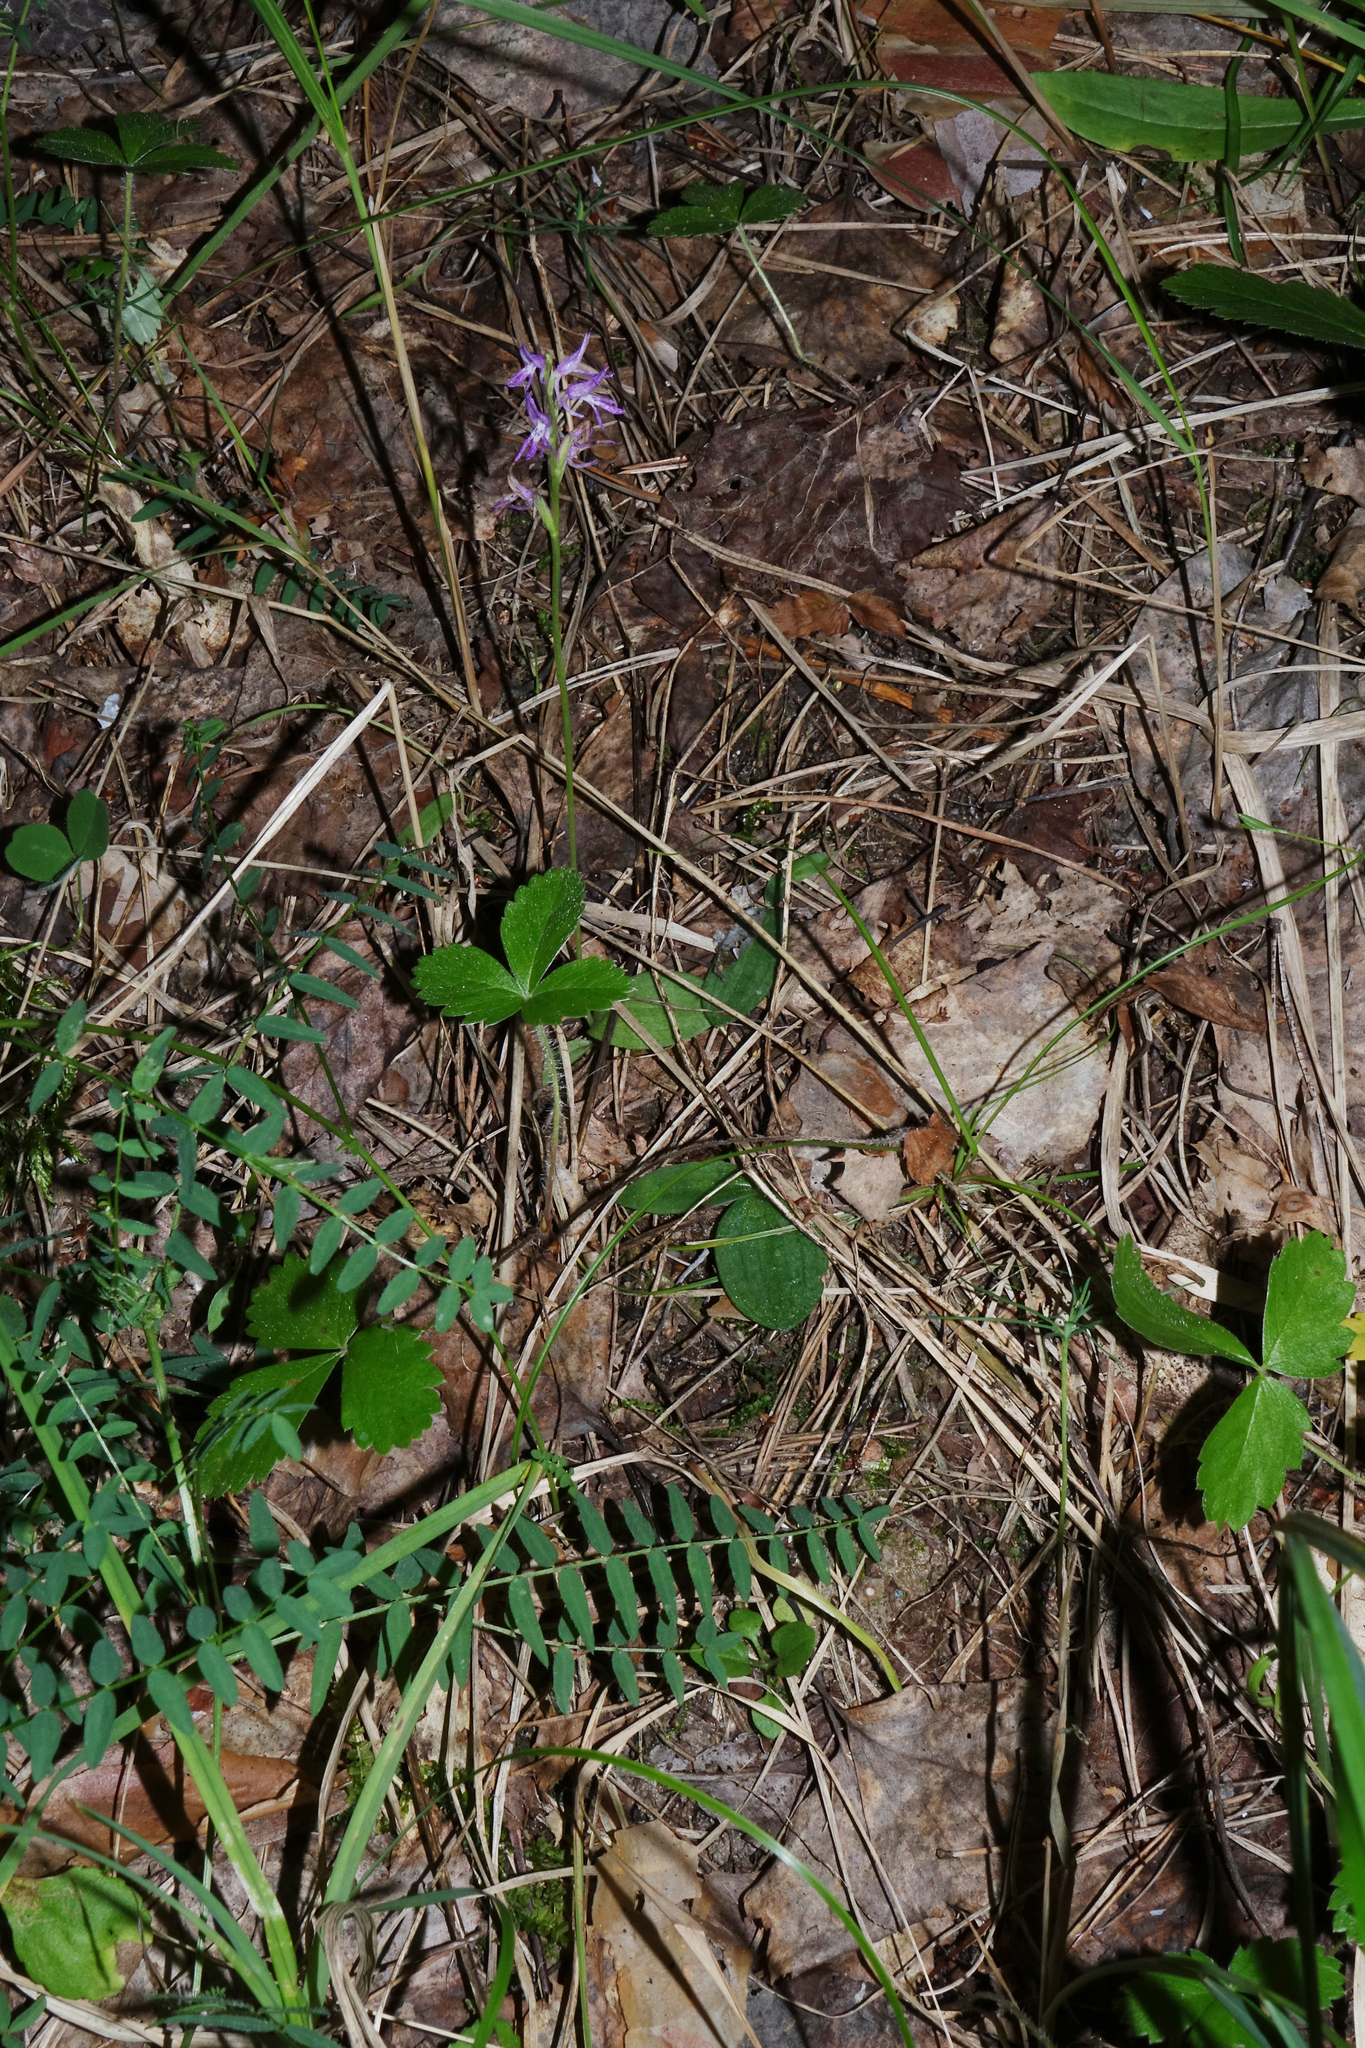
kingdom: Plantae
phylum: Tracheophyta
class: Liliopsida
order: Asparagales
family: Orchidaceae
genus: Hemipilia
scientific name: Hemipilia cucullata
